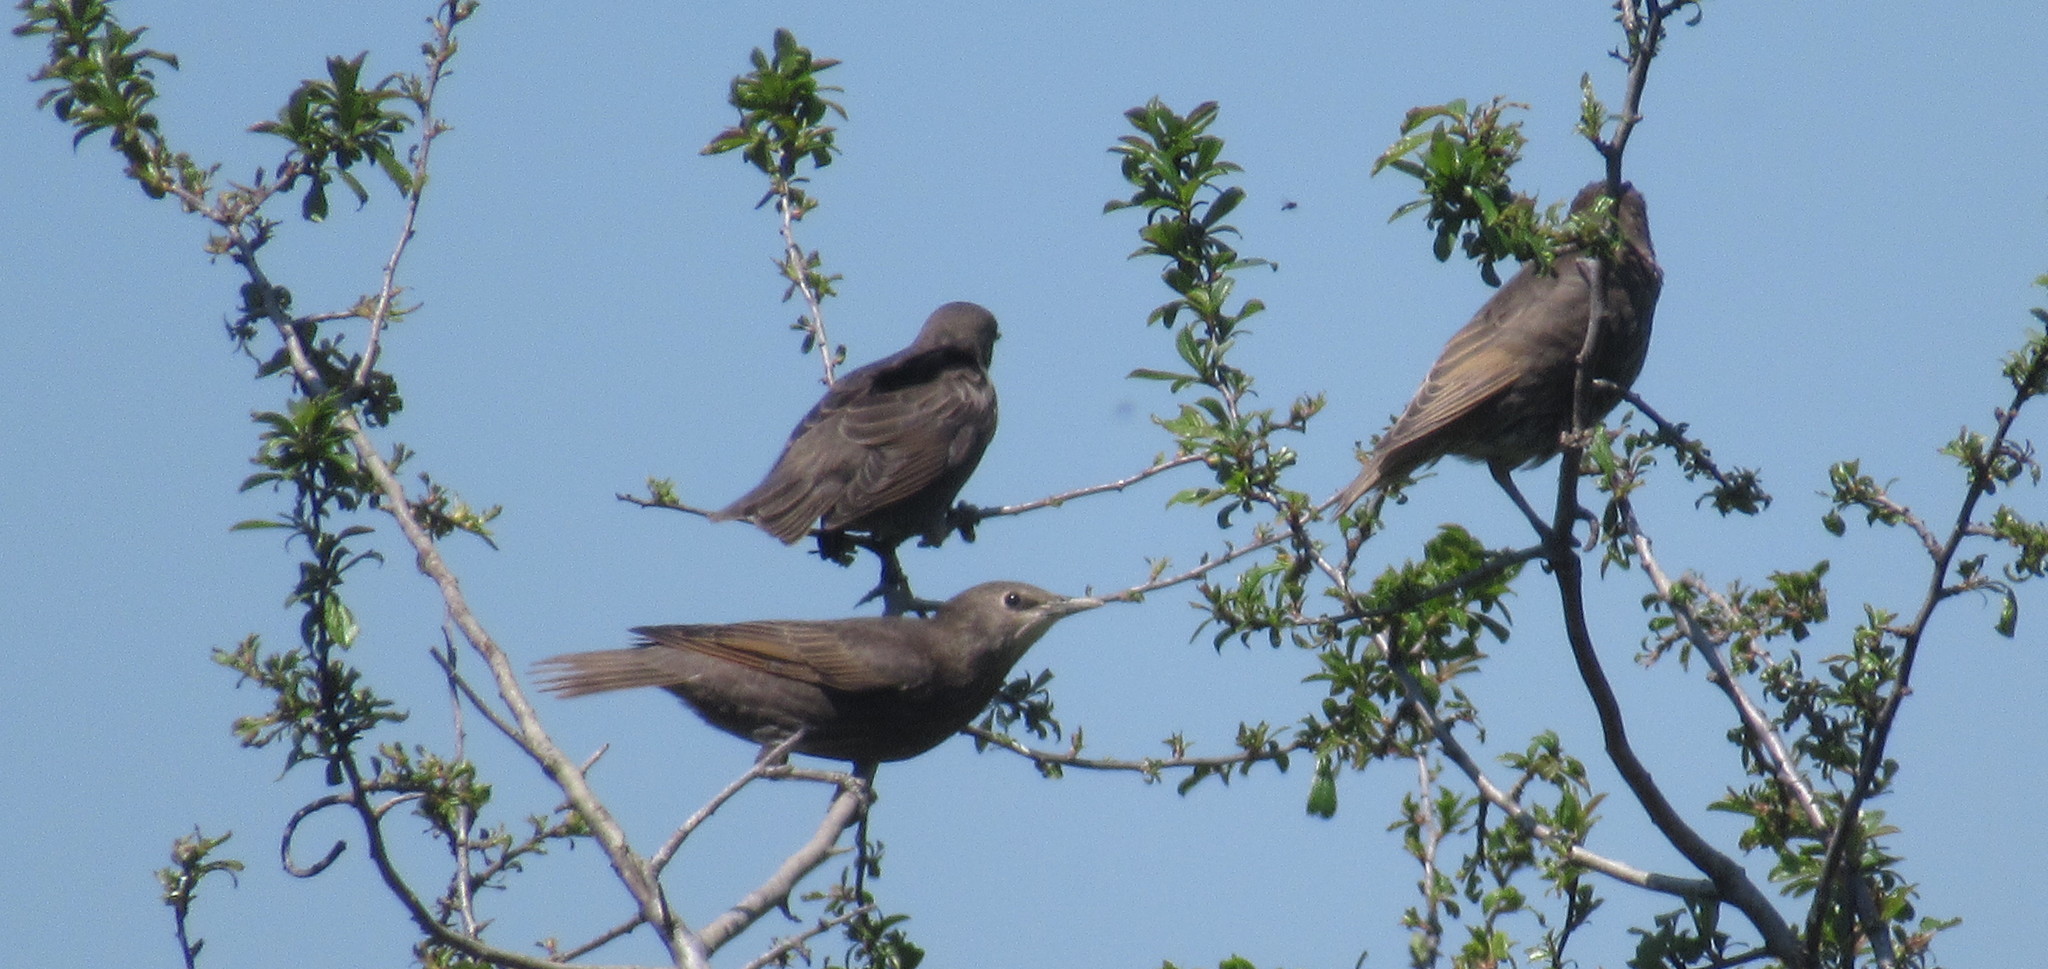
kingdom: Animalia
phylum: Chordata
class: Aves
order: Passeriformes
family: Sturnidae
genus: Sturnus
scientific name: Sturnus vulgaris
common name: Common starling
